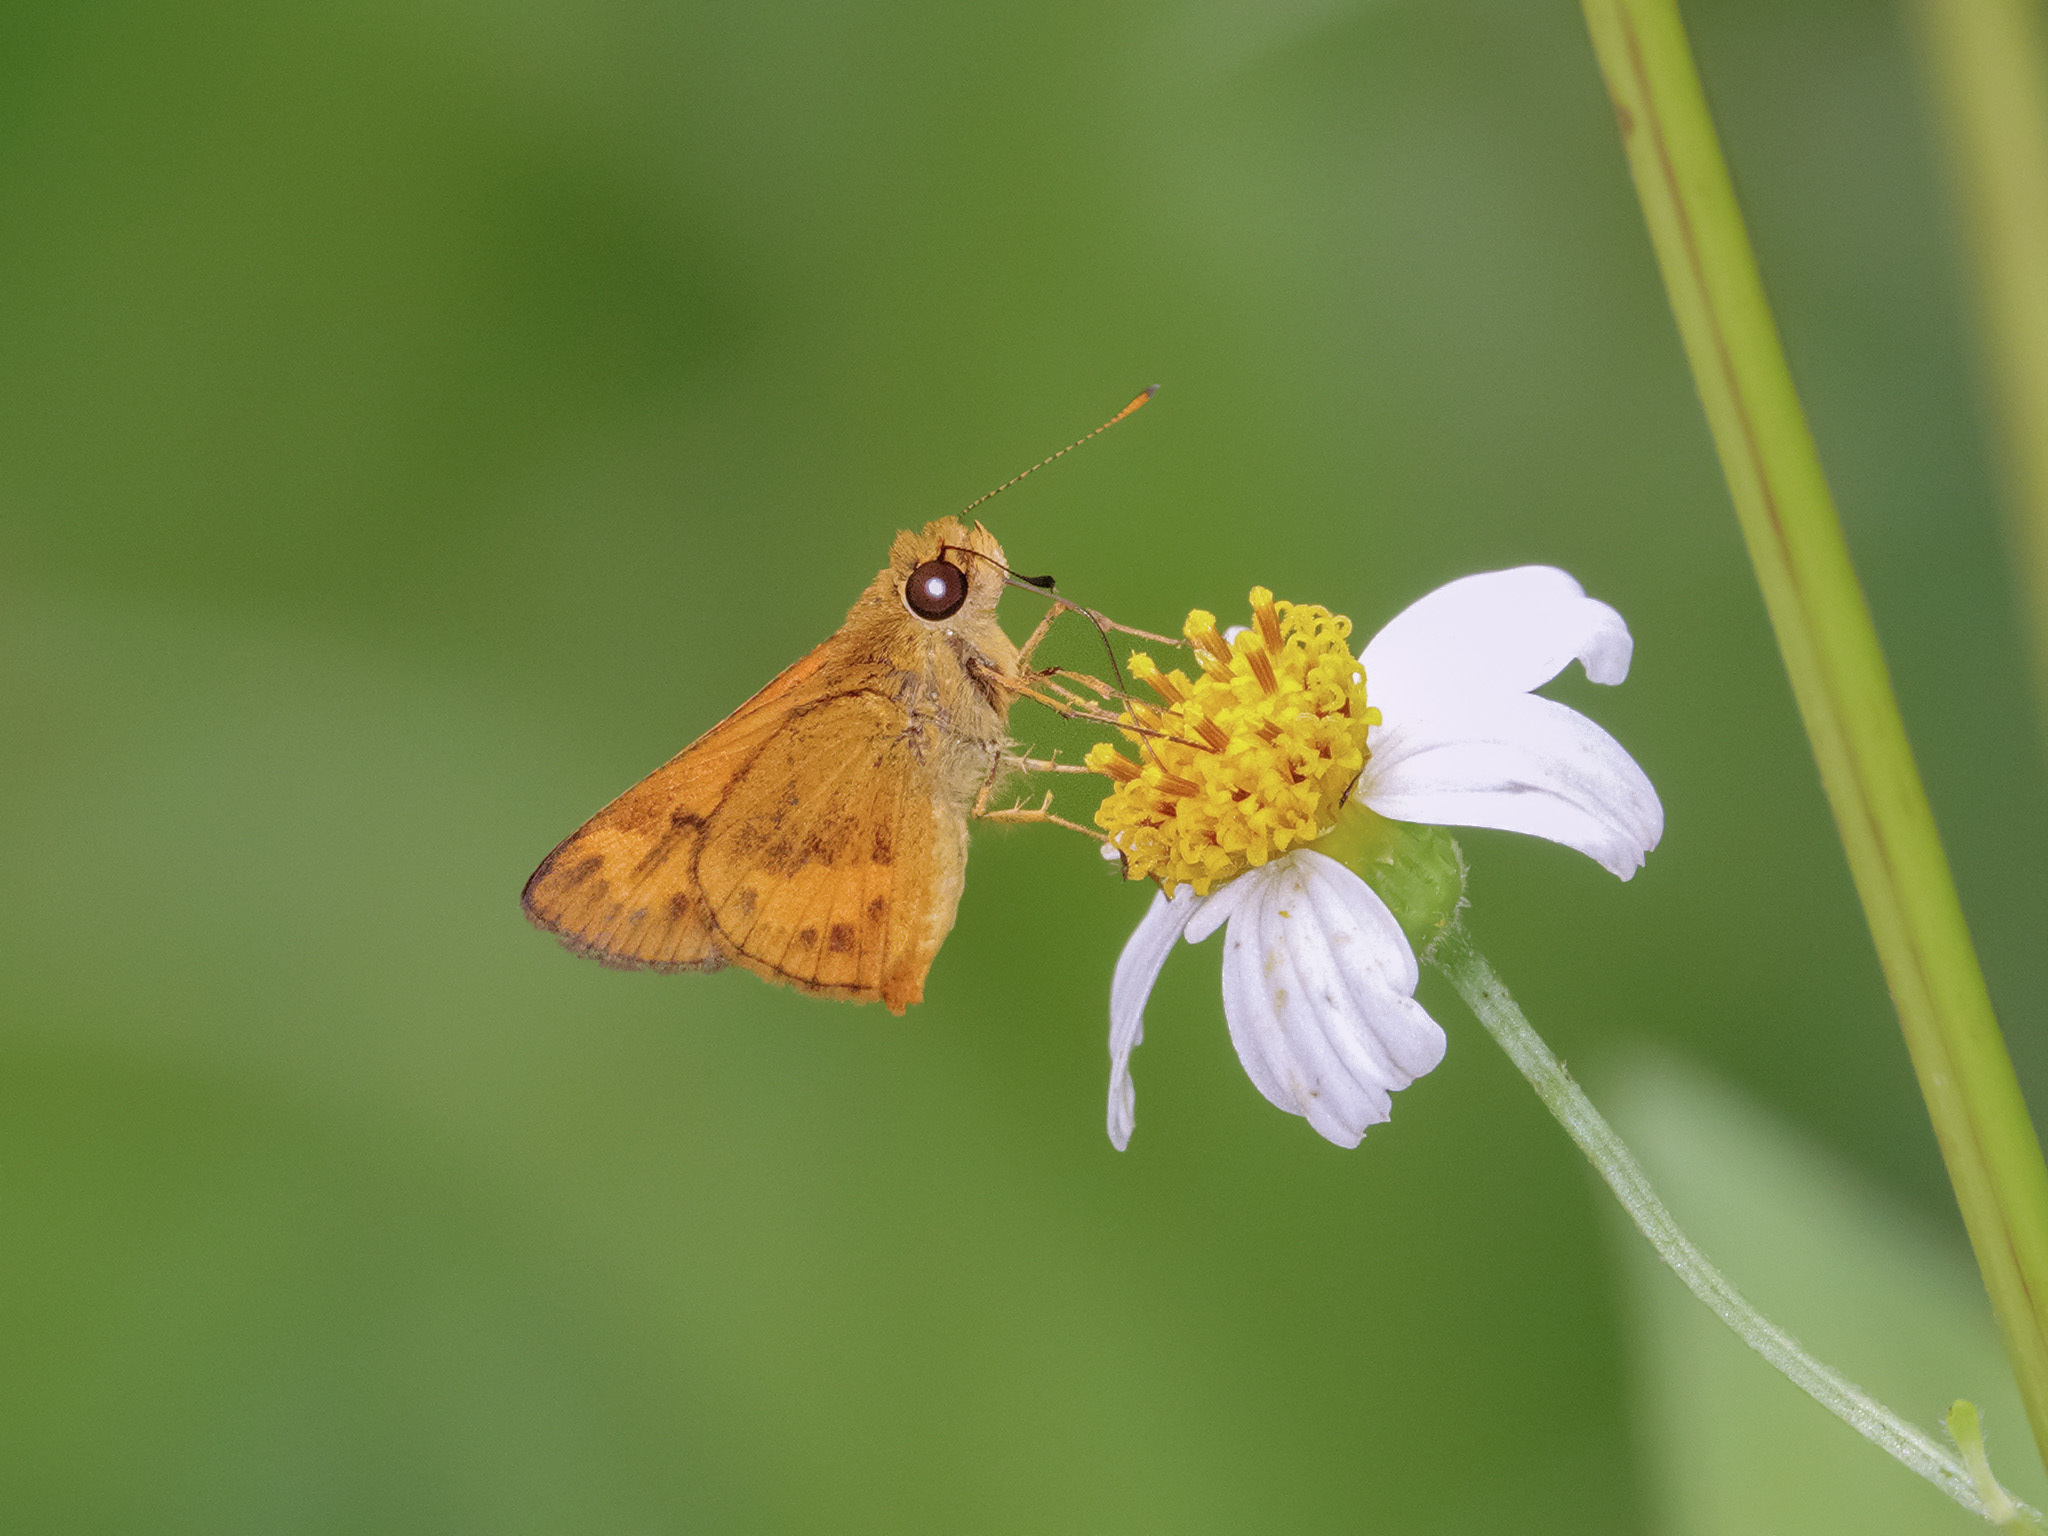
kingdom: Animalia
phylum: Arthropoda
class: Insecta
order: Lepidoptera
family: Hesperiidae
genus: Oriens
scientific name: Oriens gola
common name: Common dartlet
